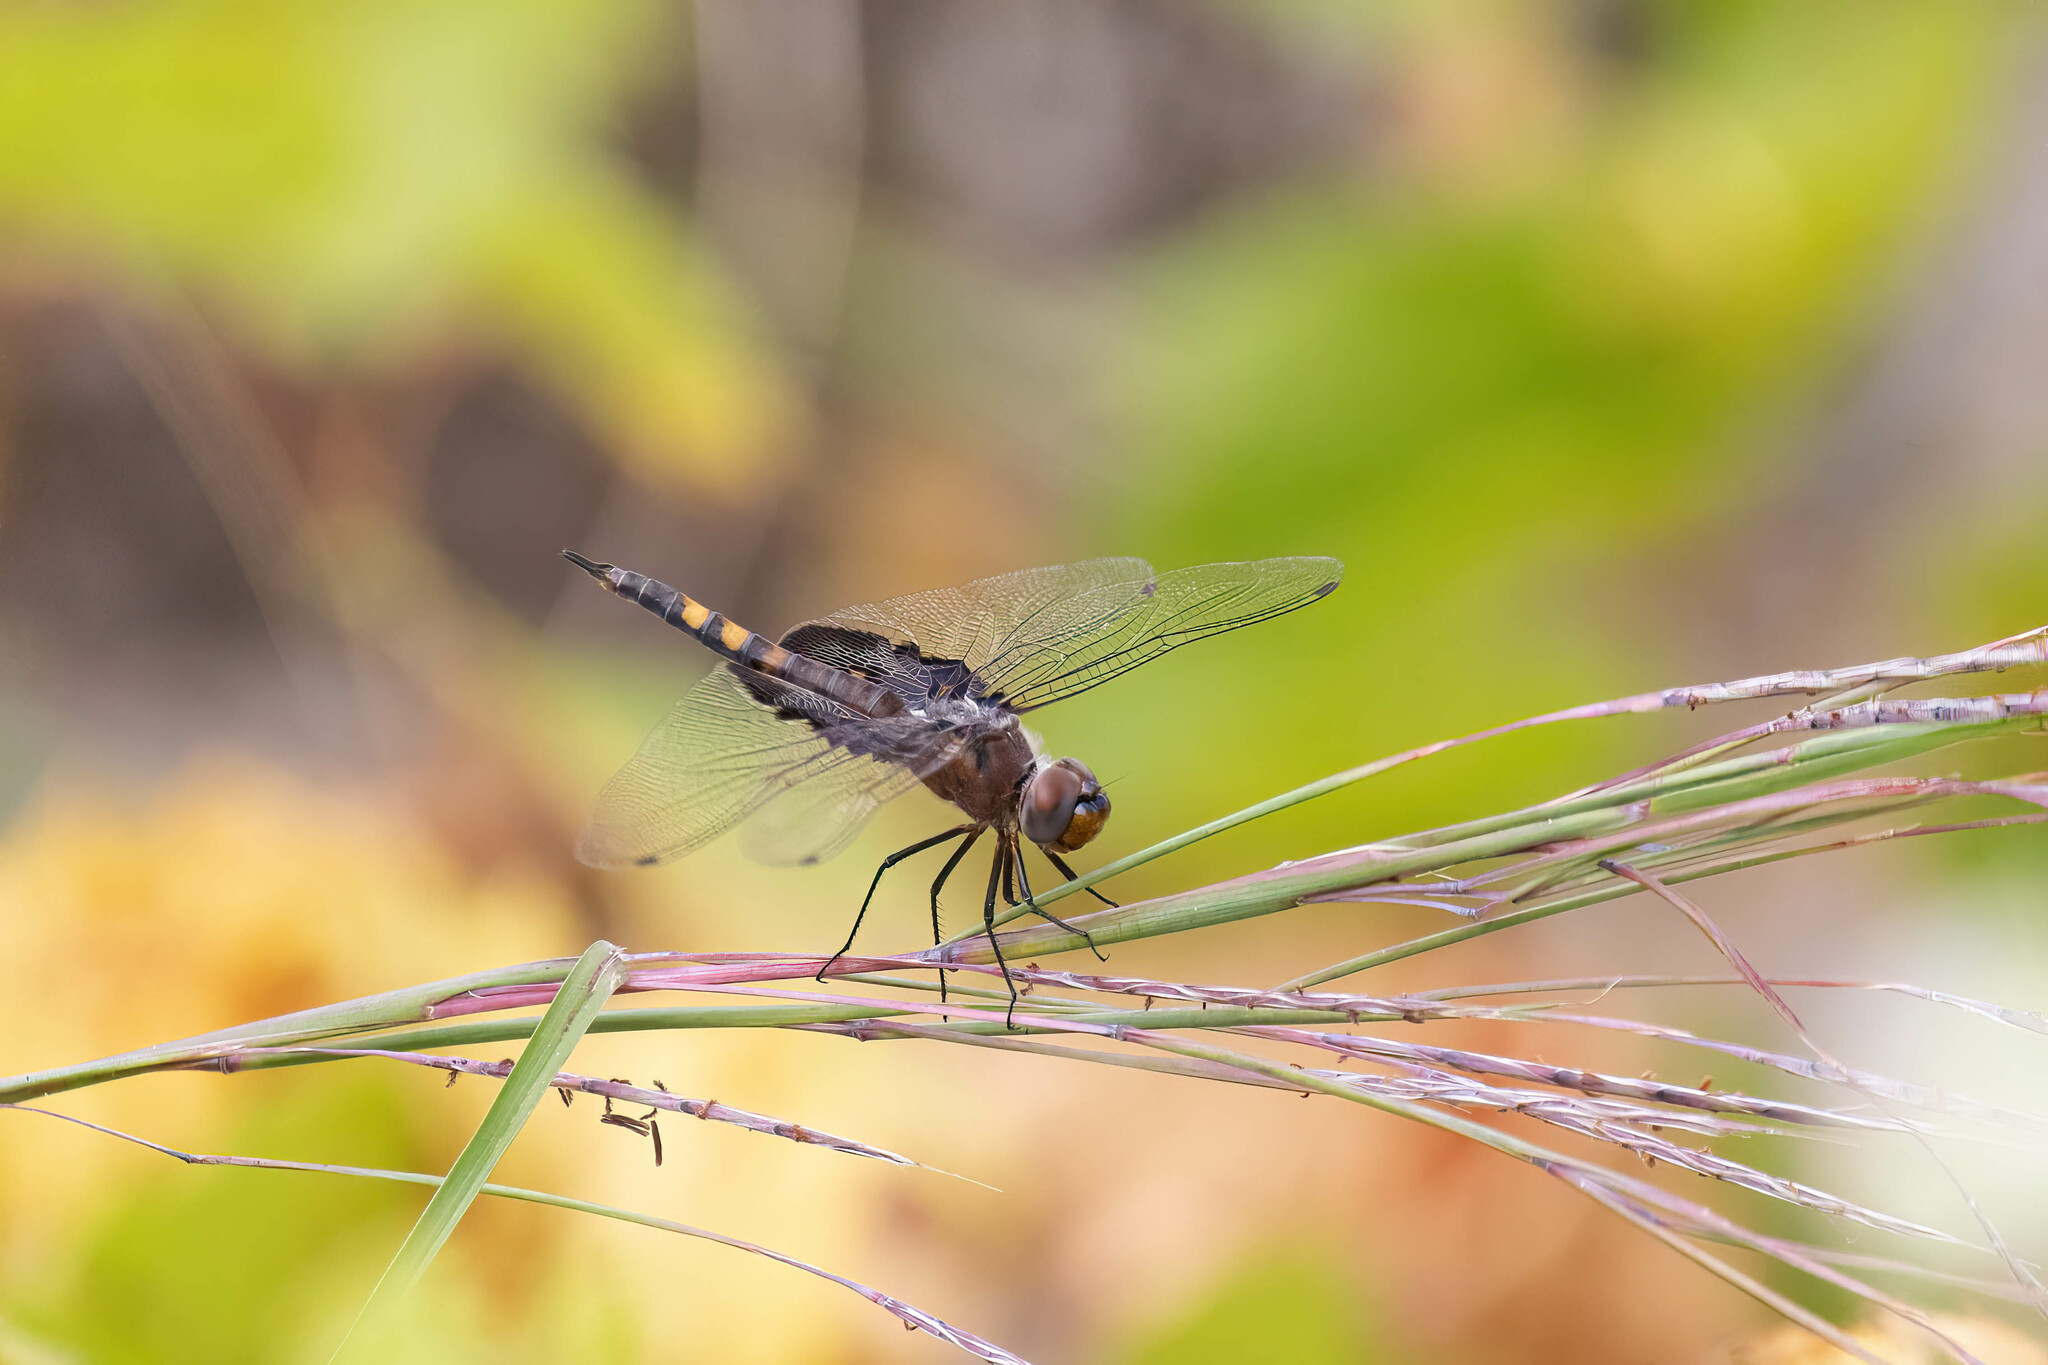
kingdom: Animalia
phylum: Arthropoda
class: Insecta
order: Odonata
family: Libellulidae
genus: Tramea
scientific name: Tramea lacerata
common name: Black saddlebags
